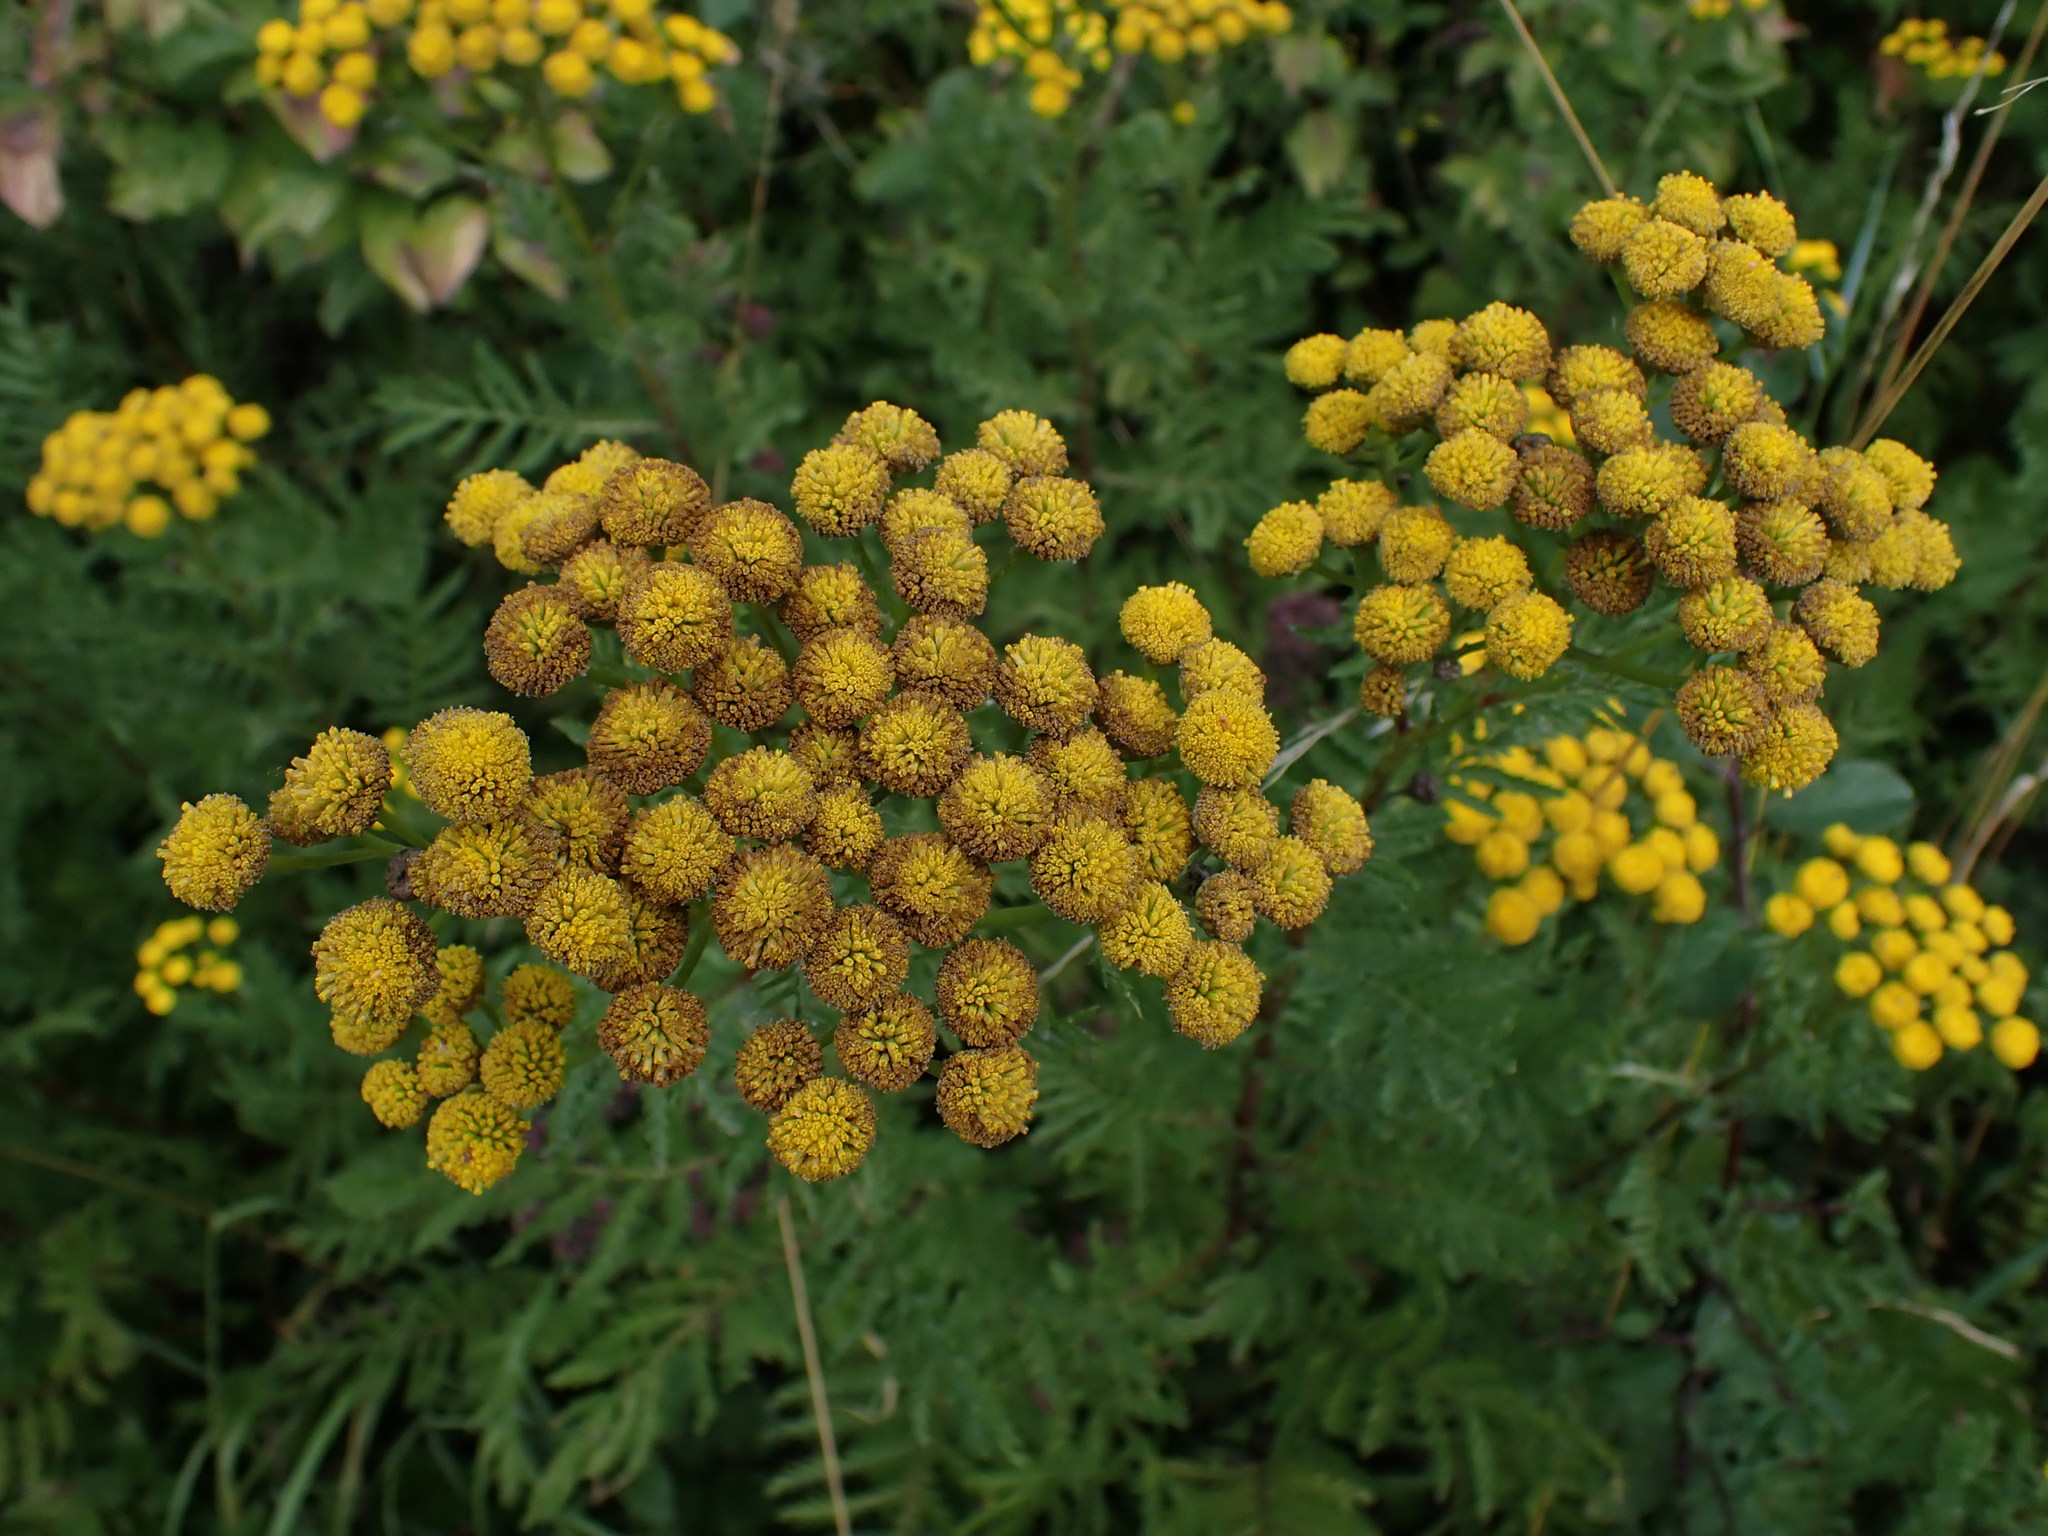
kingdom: Plantae
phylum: Tracheophyta
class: Magnoliopsida
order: Asterales
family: Asteraceae
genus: Tanacetum
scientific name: Tanacetum vulgare
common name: Common tansy
